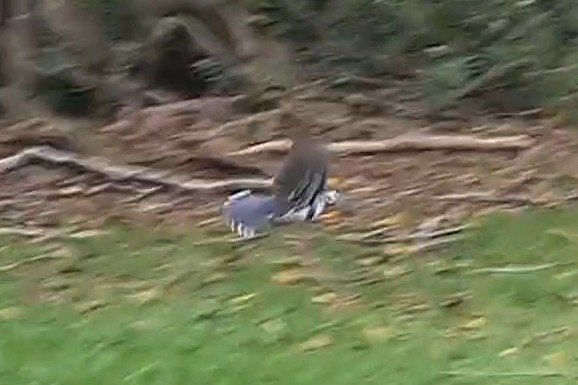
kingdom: Animalia
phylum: Chordata
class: Aves
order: Columbiformes
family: Columbidae
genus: Leucosarcia
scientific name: Leucosarcia melanoleuca
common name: Wonga pigeon
